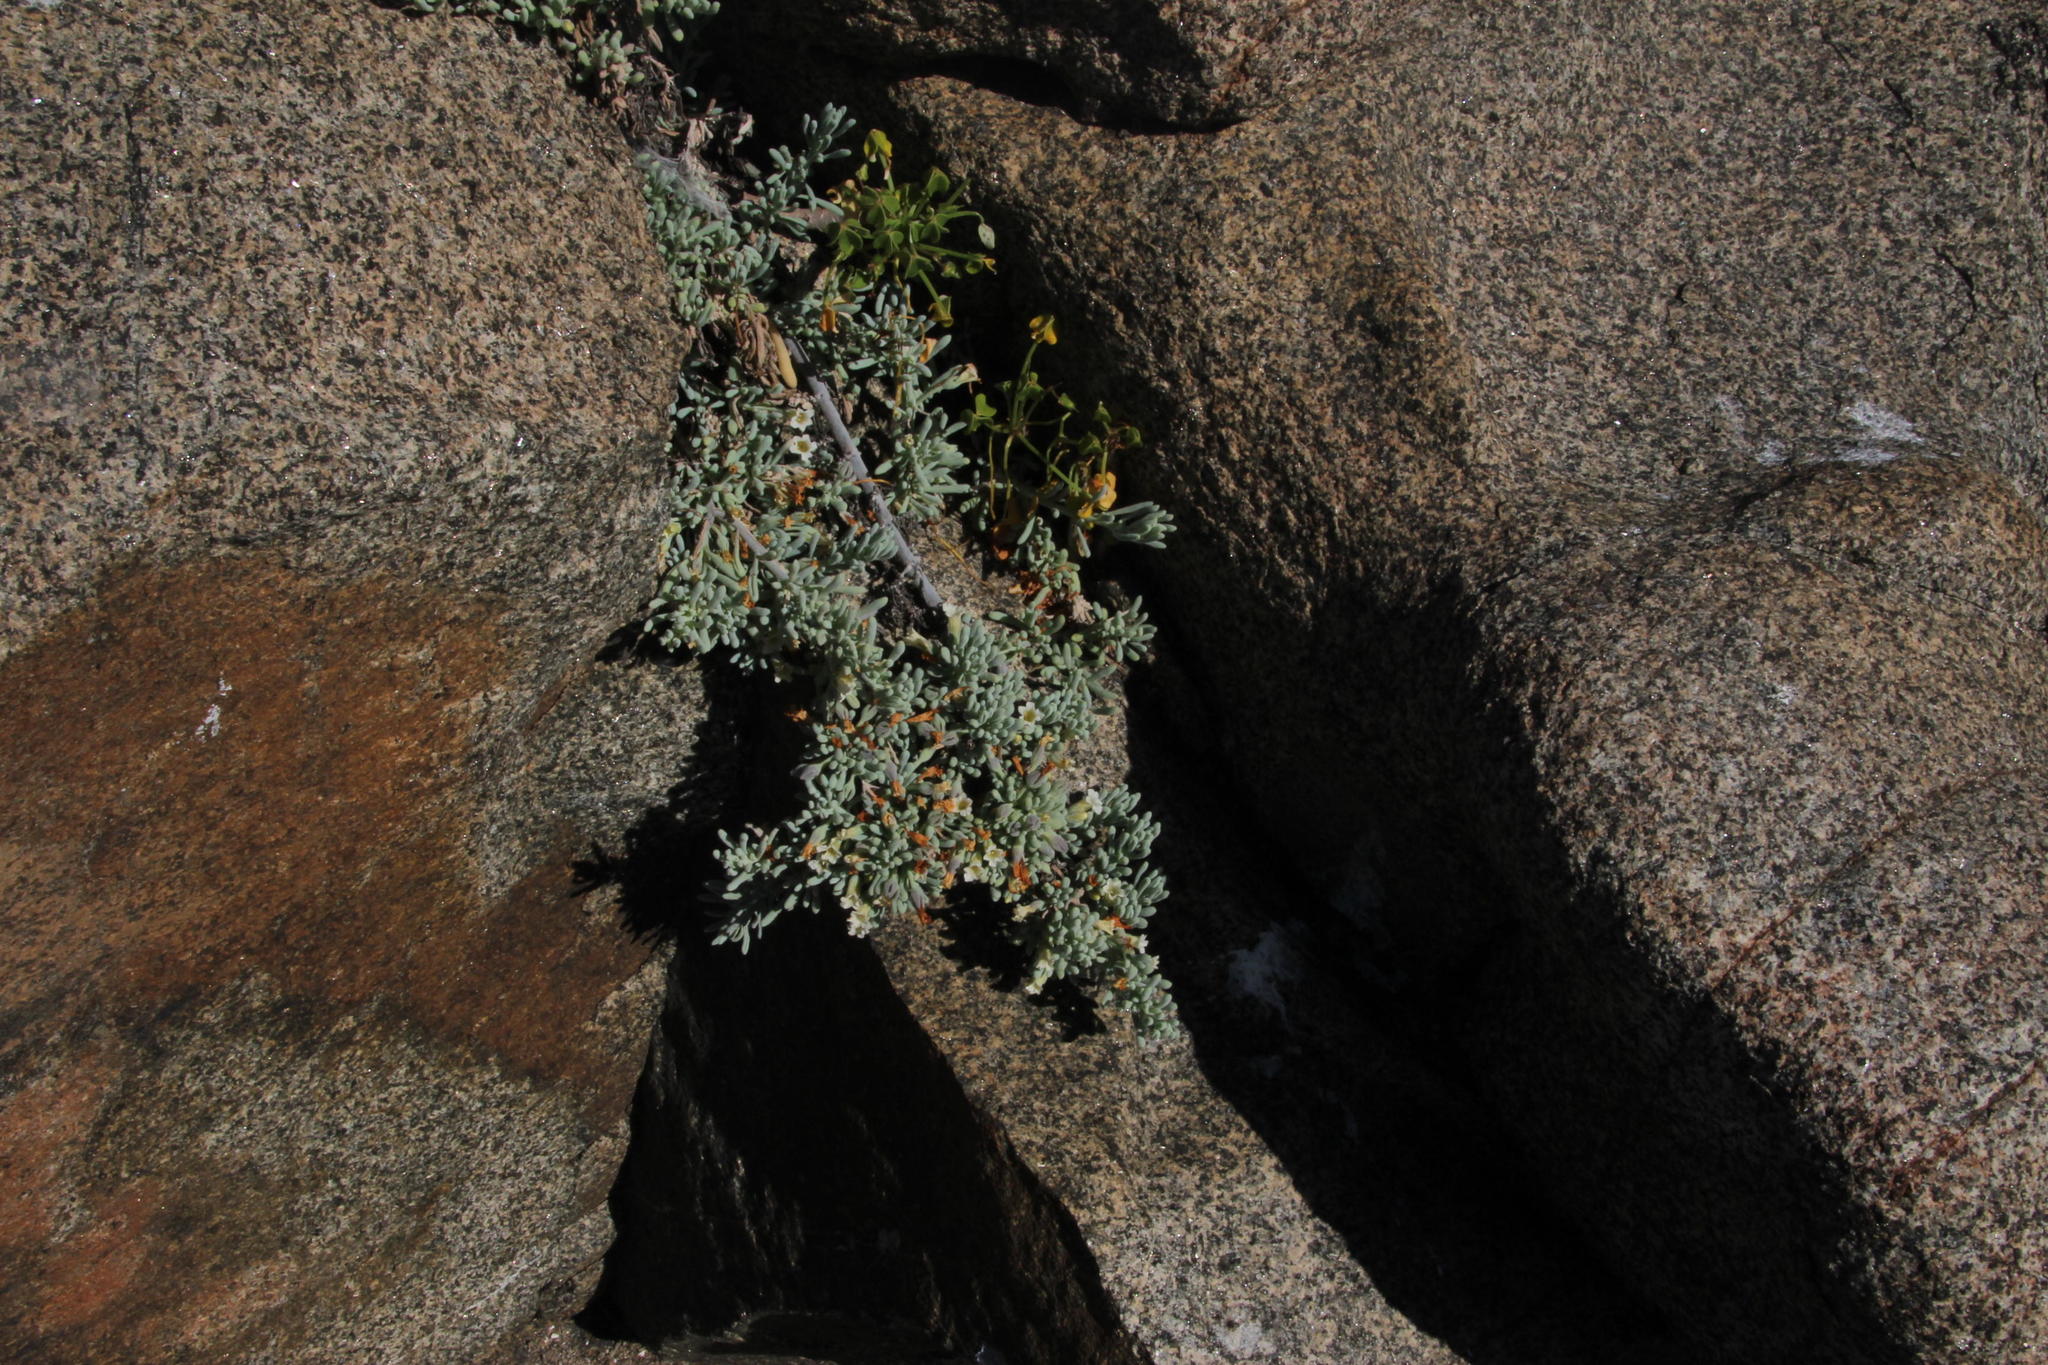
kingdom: Plantae
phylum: Tracheophyta
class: Magnoliopsida
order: Solanales
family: Solanaceae
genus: Nolana
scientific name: Nolana crassulifolia
